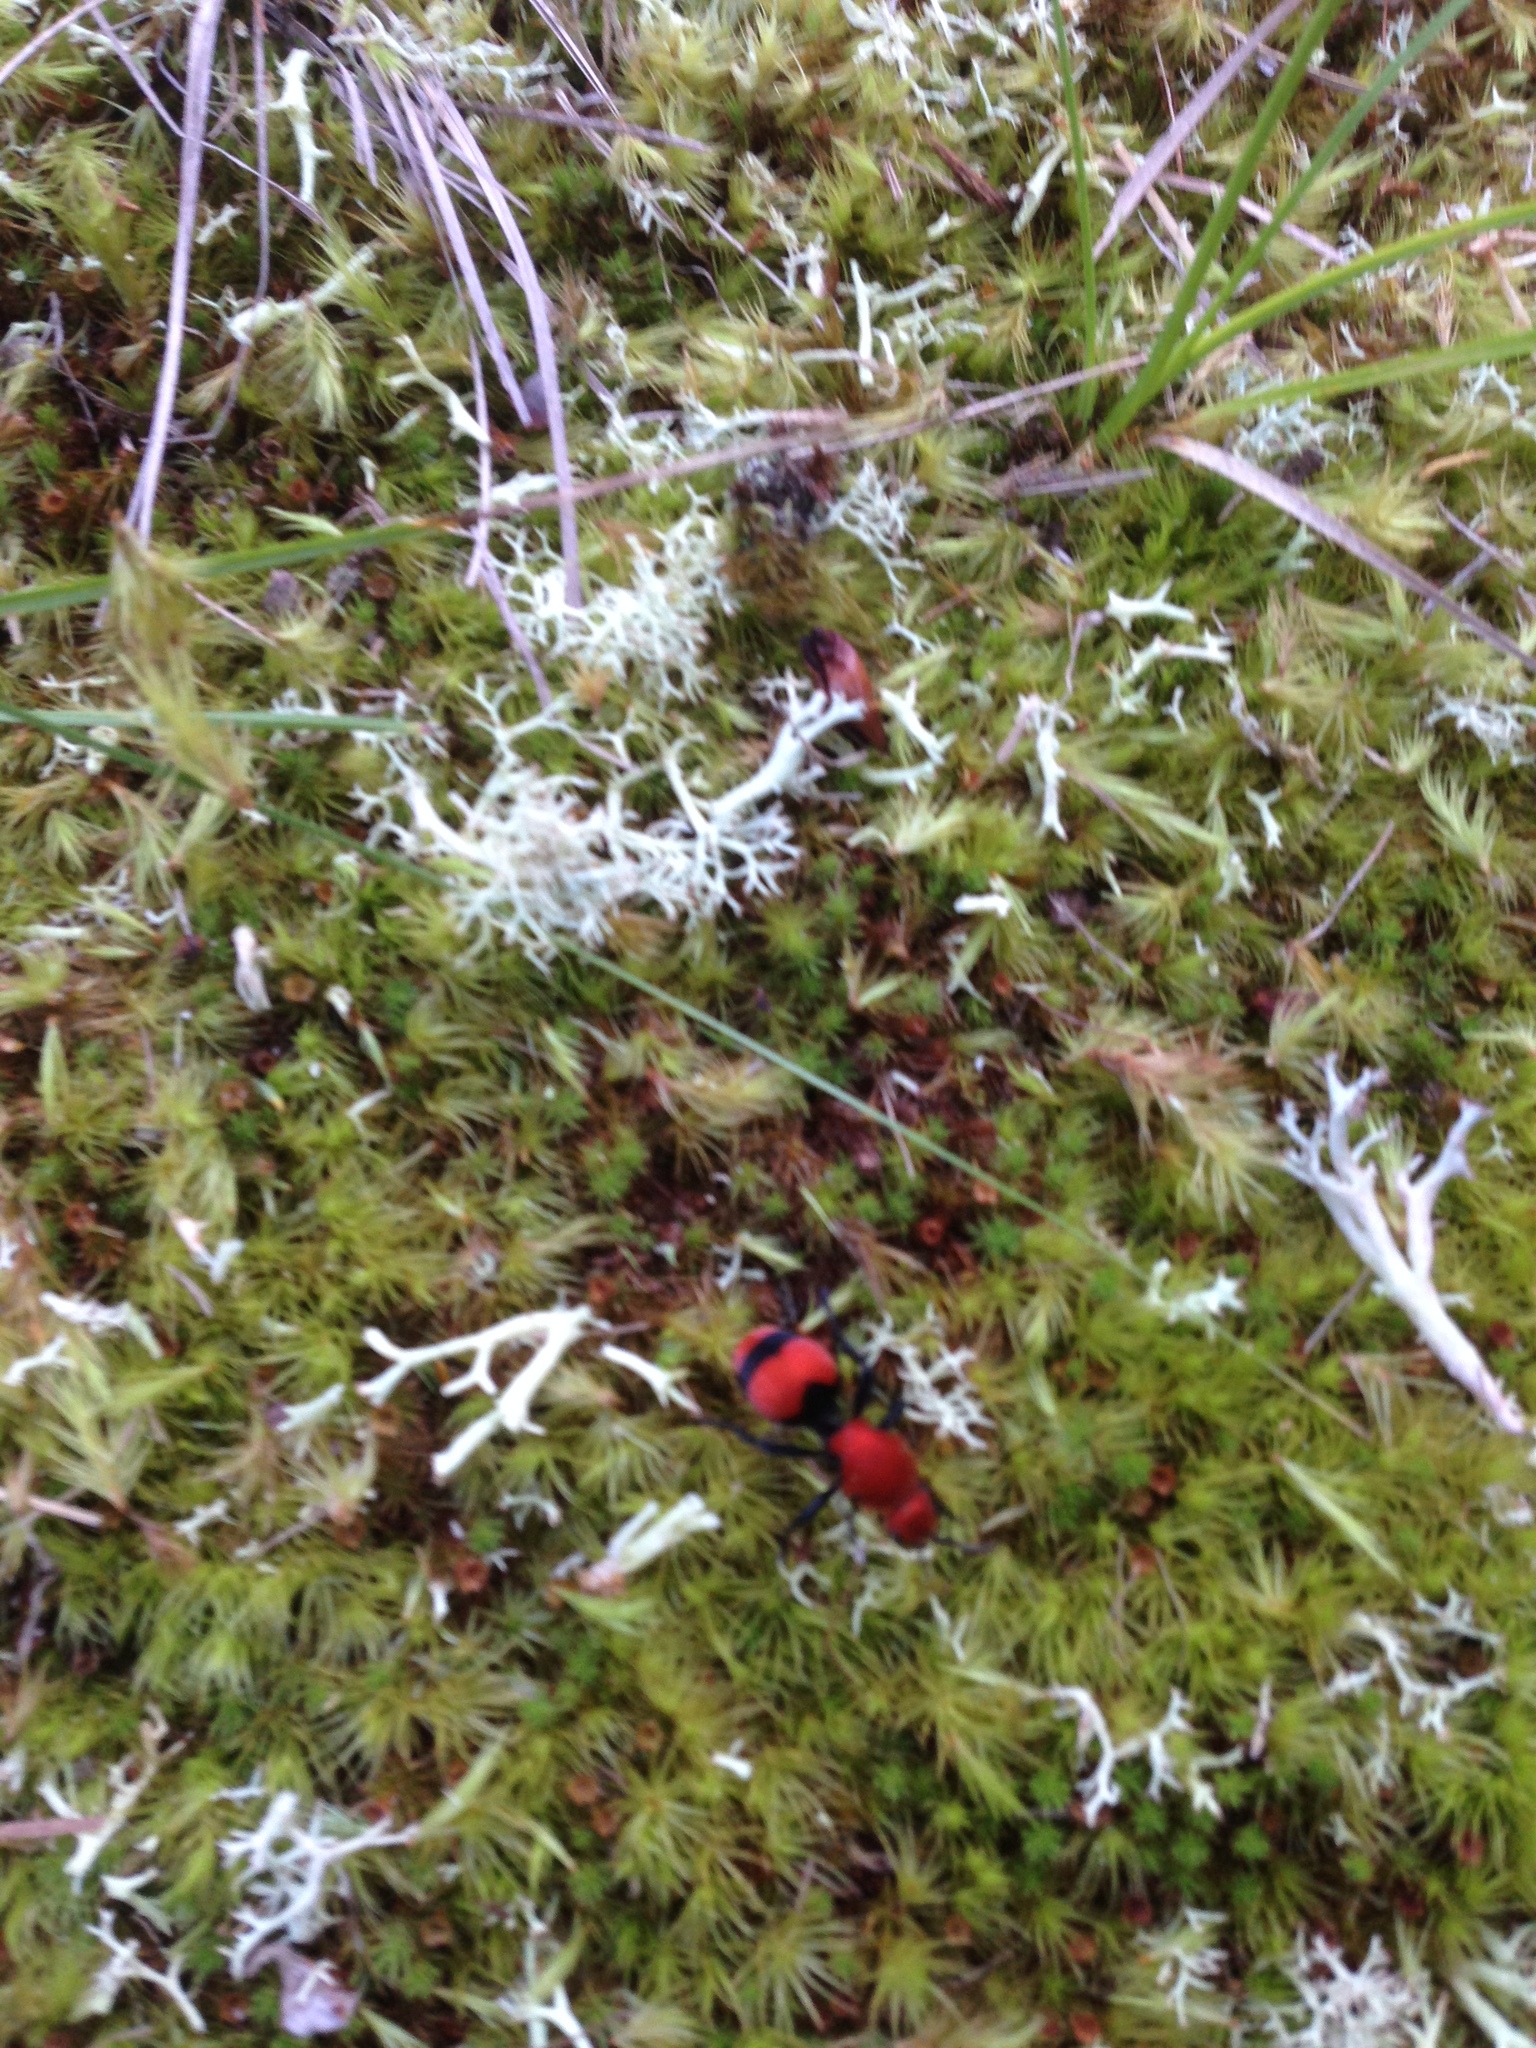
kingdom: Animalia
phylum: Arthropoda
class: Insecta
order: Hymenoptera
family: Mutillidae
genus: Dasymutilla
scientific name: Dasymutilla occidentalis
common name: Common eastern velvet ant
